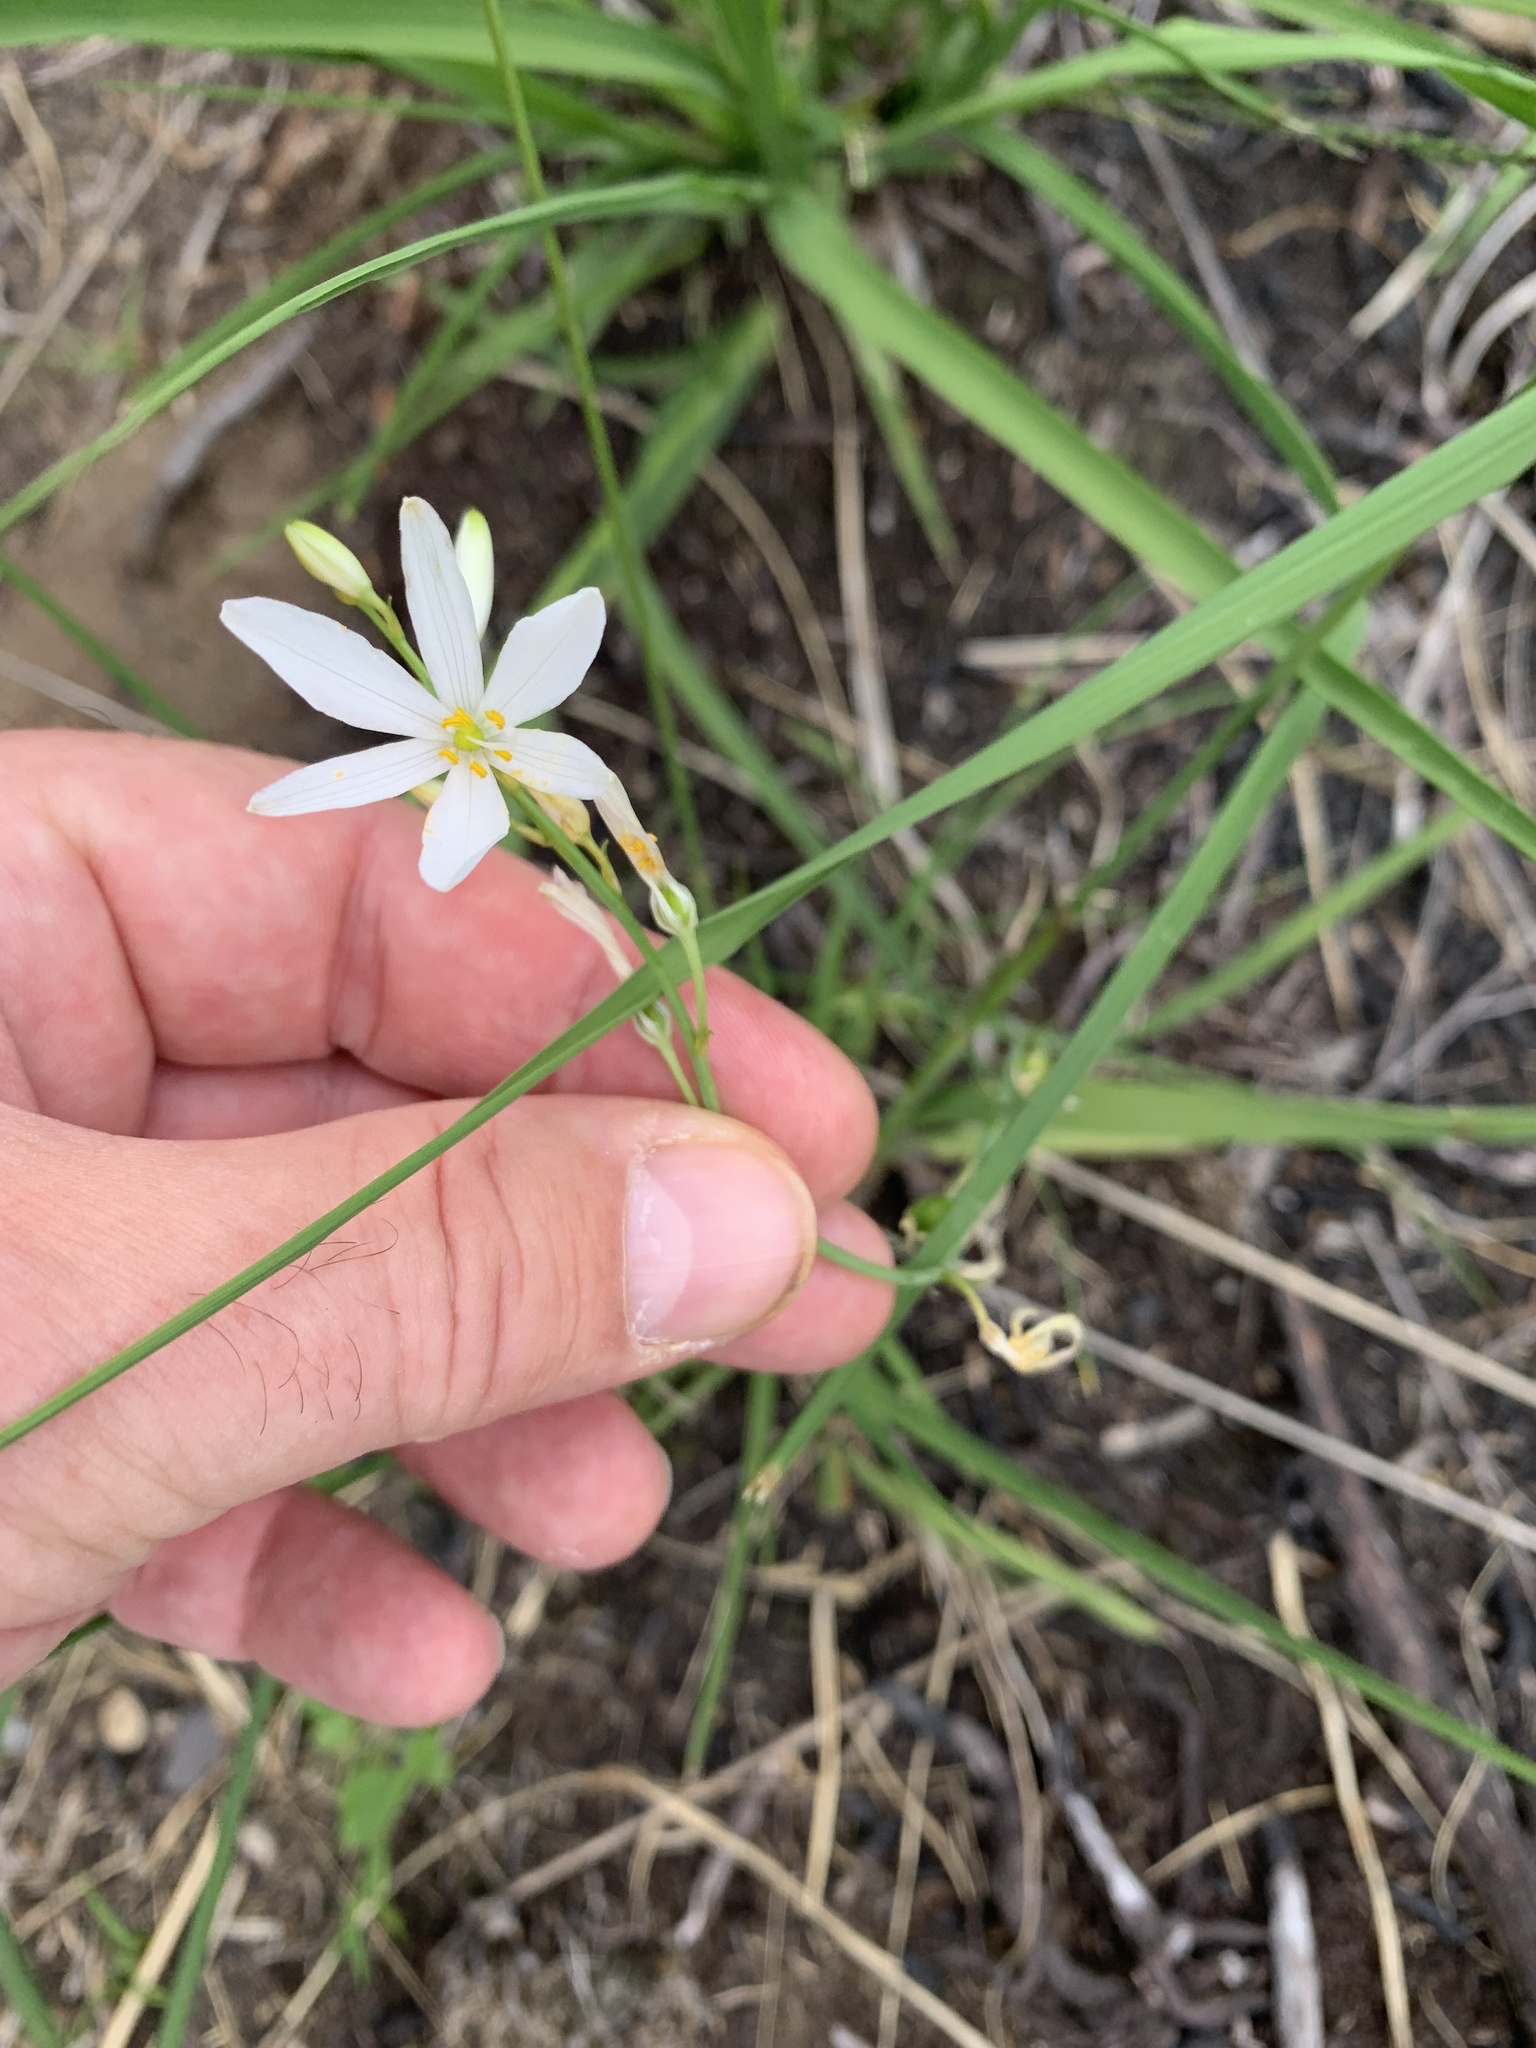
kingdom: Plantae
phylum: Tracheophyta
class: Liliopsida
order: Asparagales
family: Asparagaceae
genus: Anthericum
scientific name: Anthericum liliago
